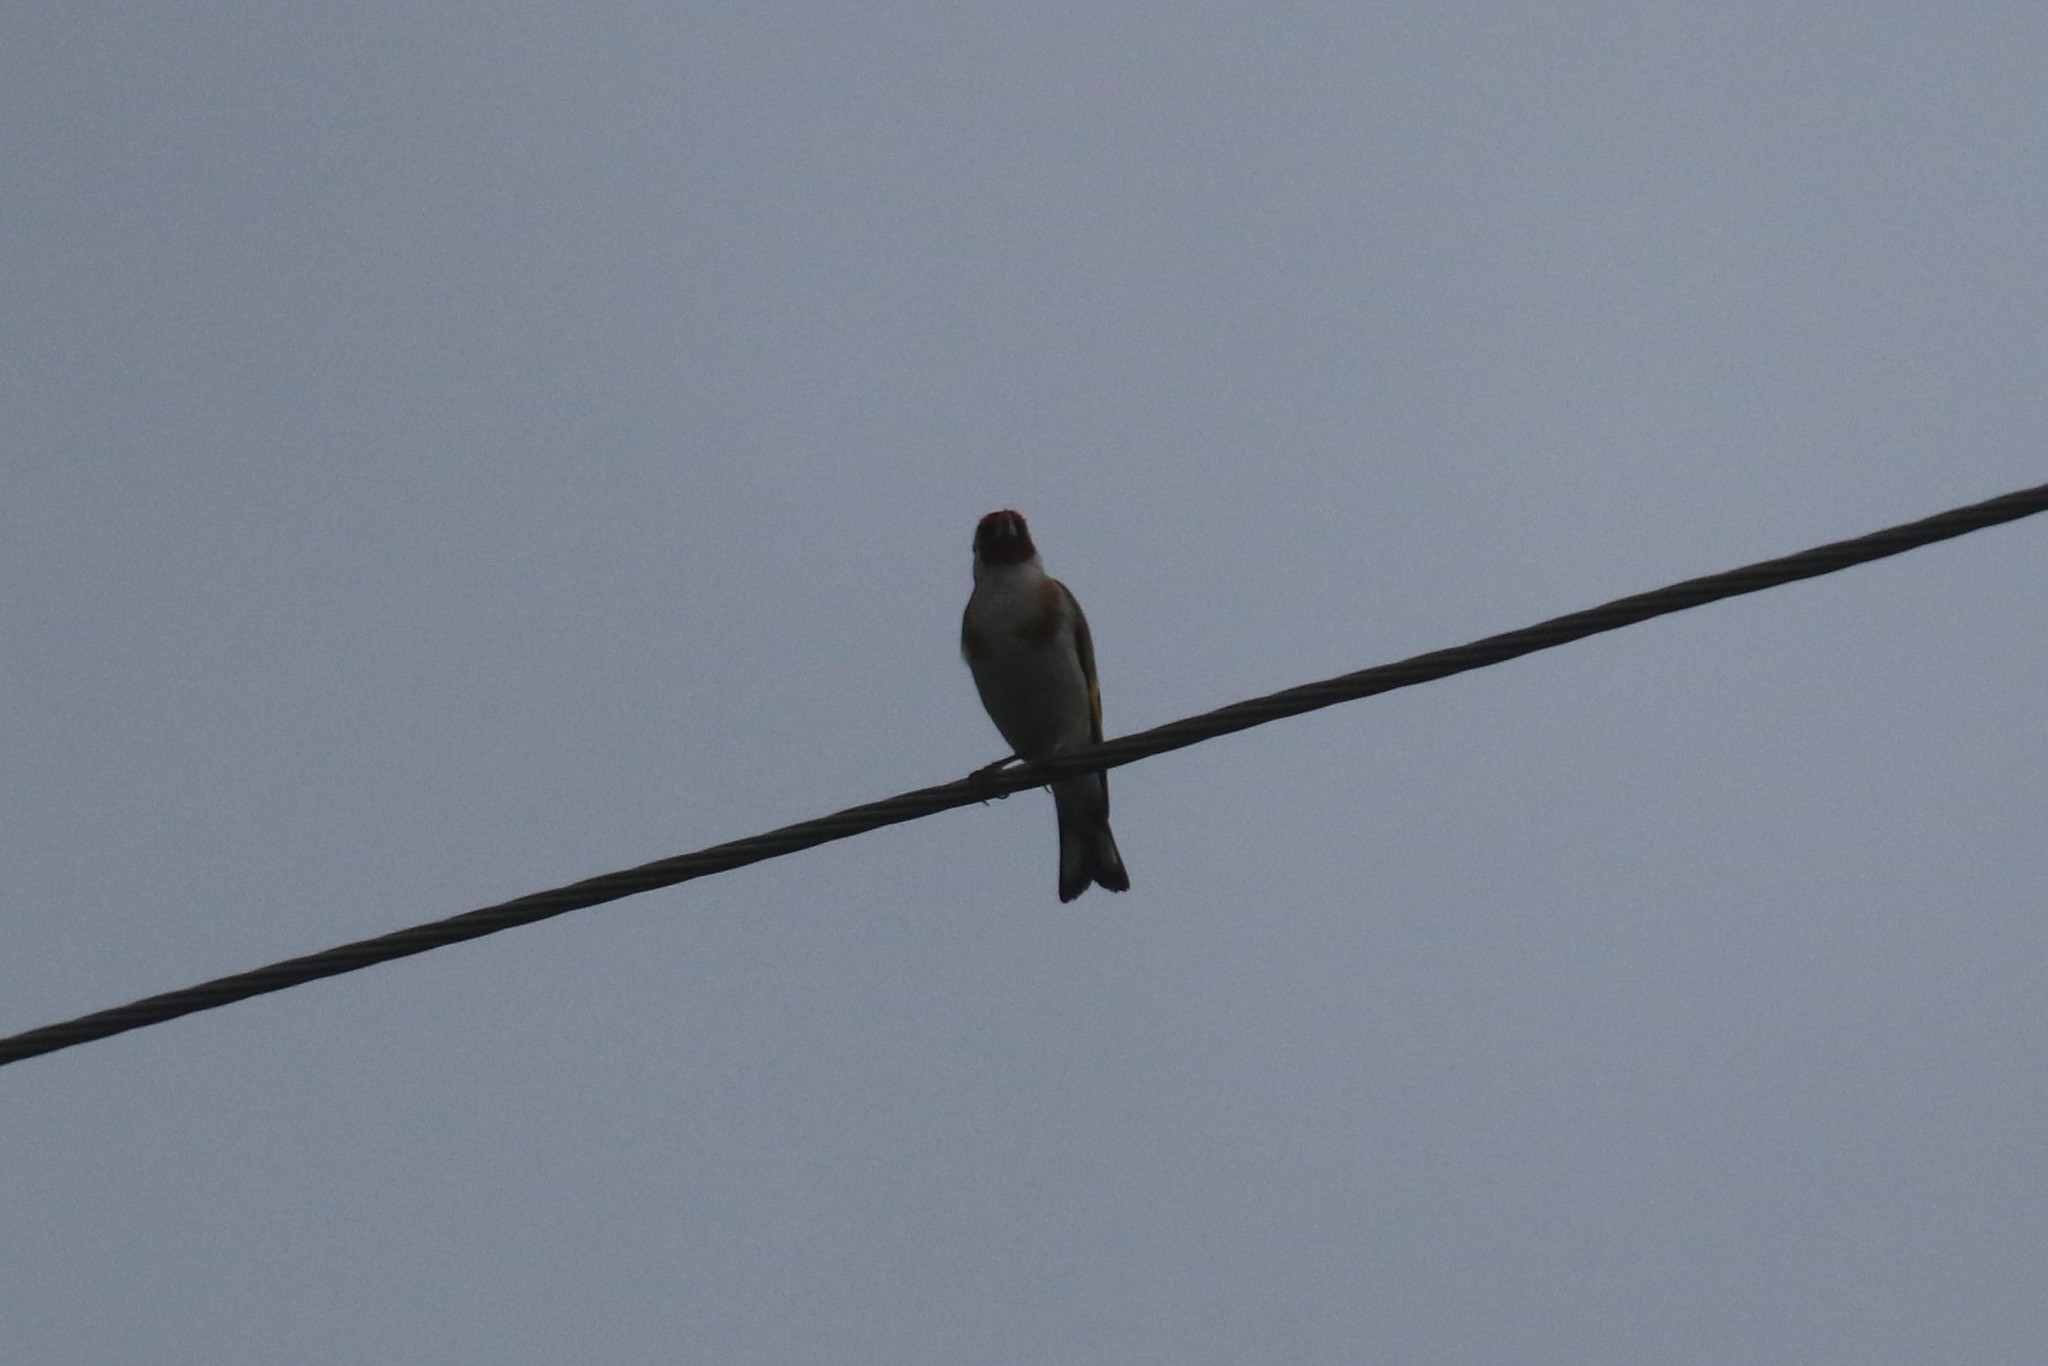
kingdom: Animalia
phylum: Chordata
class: Aves
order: Passeriformes
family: Fringillidae
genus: Carduelis
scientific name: Carduelis carduelis
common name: European goldfinch
